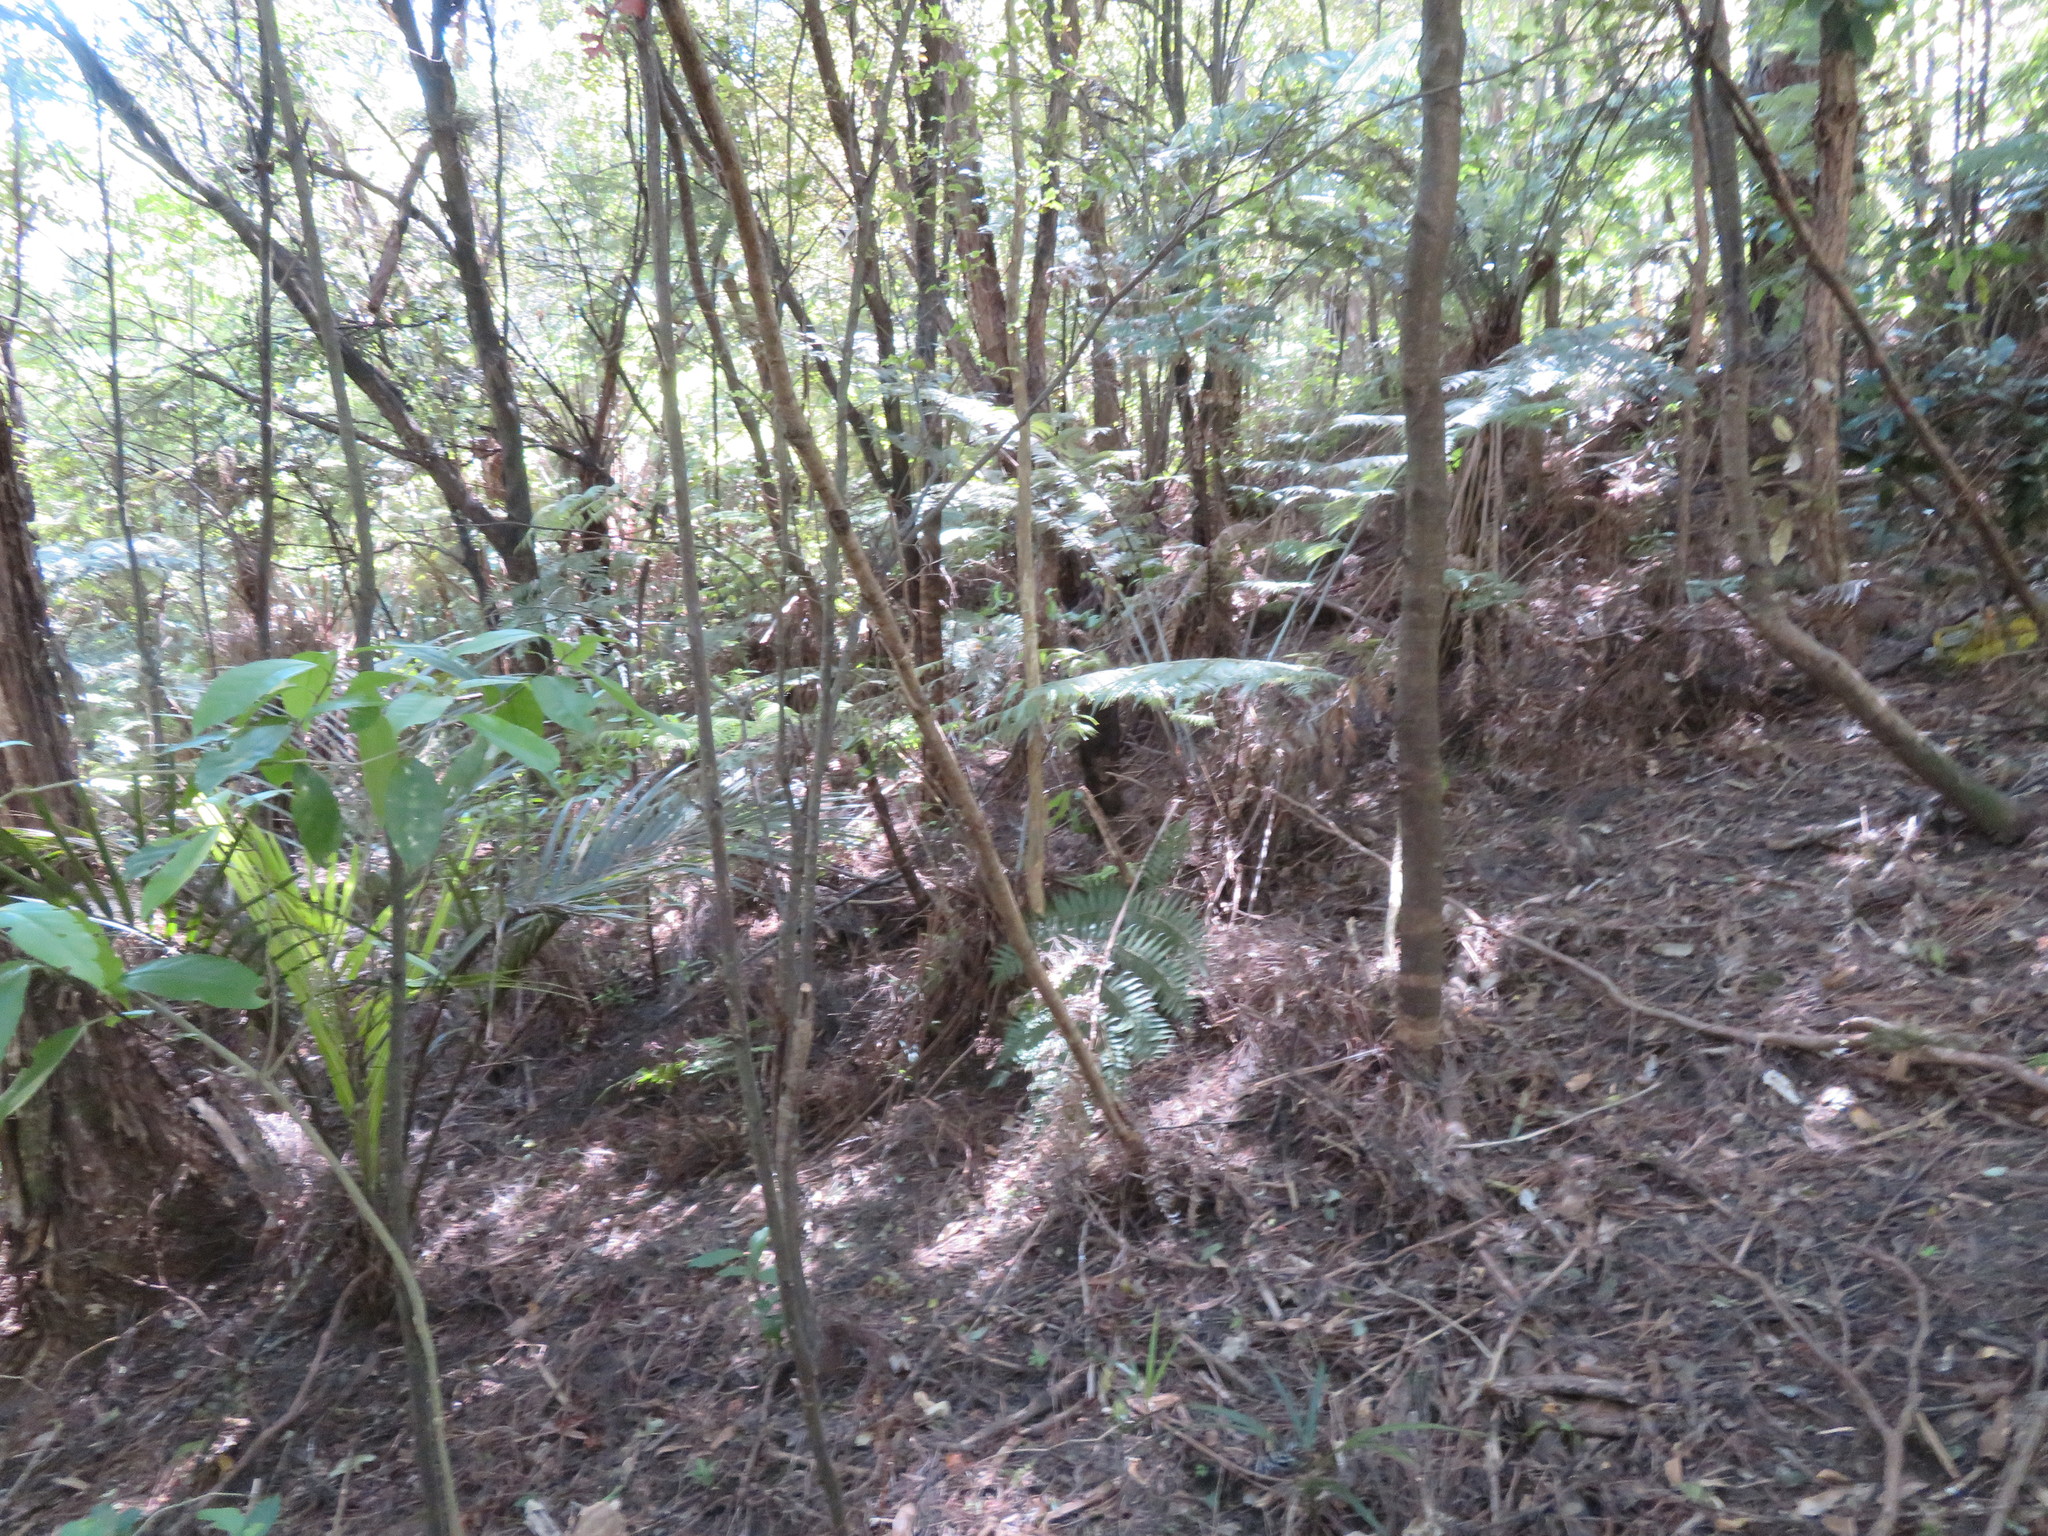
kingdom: Plantae
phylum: Tracheophyta
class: Polypodiopsida
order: Cyatheales
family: Cyatheaceae
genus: Alsophila
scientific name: Alsophila dealbata
